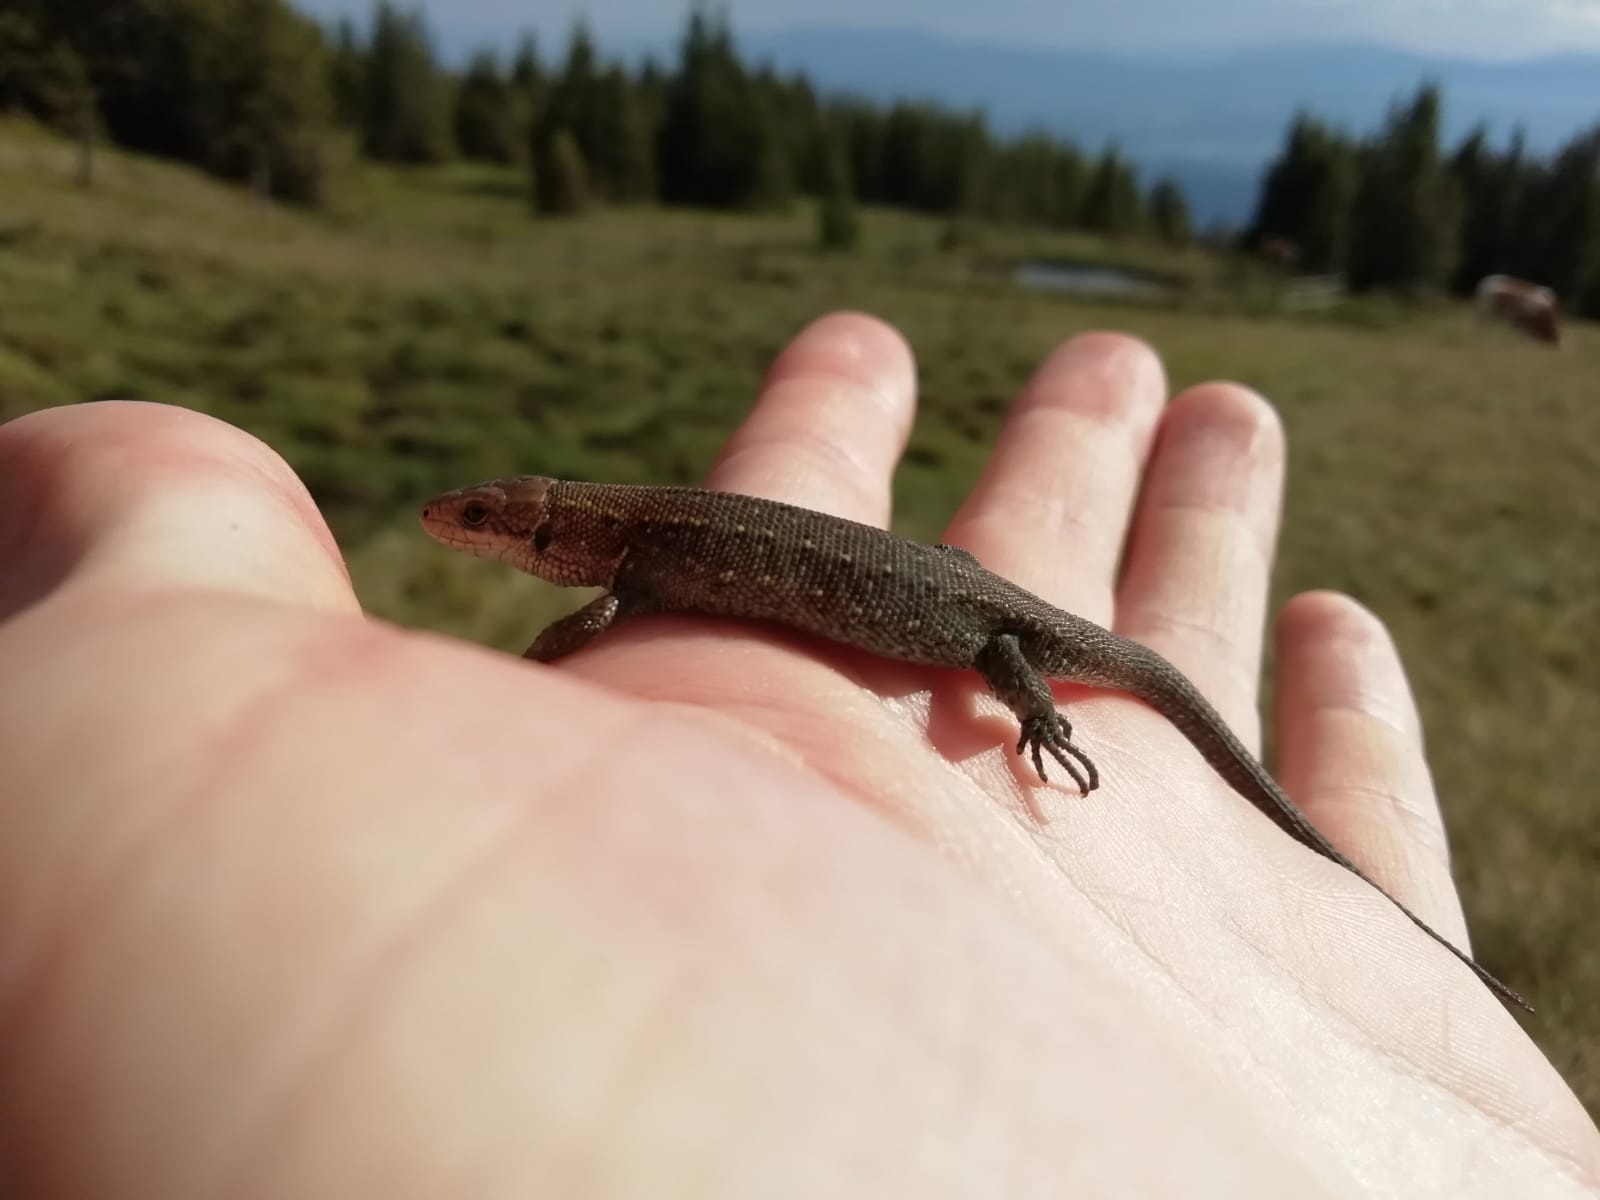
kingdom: Animalia
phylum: Chordata
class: Squamata
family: Lacertidae
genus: Zootoca
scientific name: Zootoca vivipara
